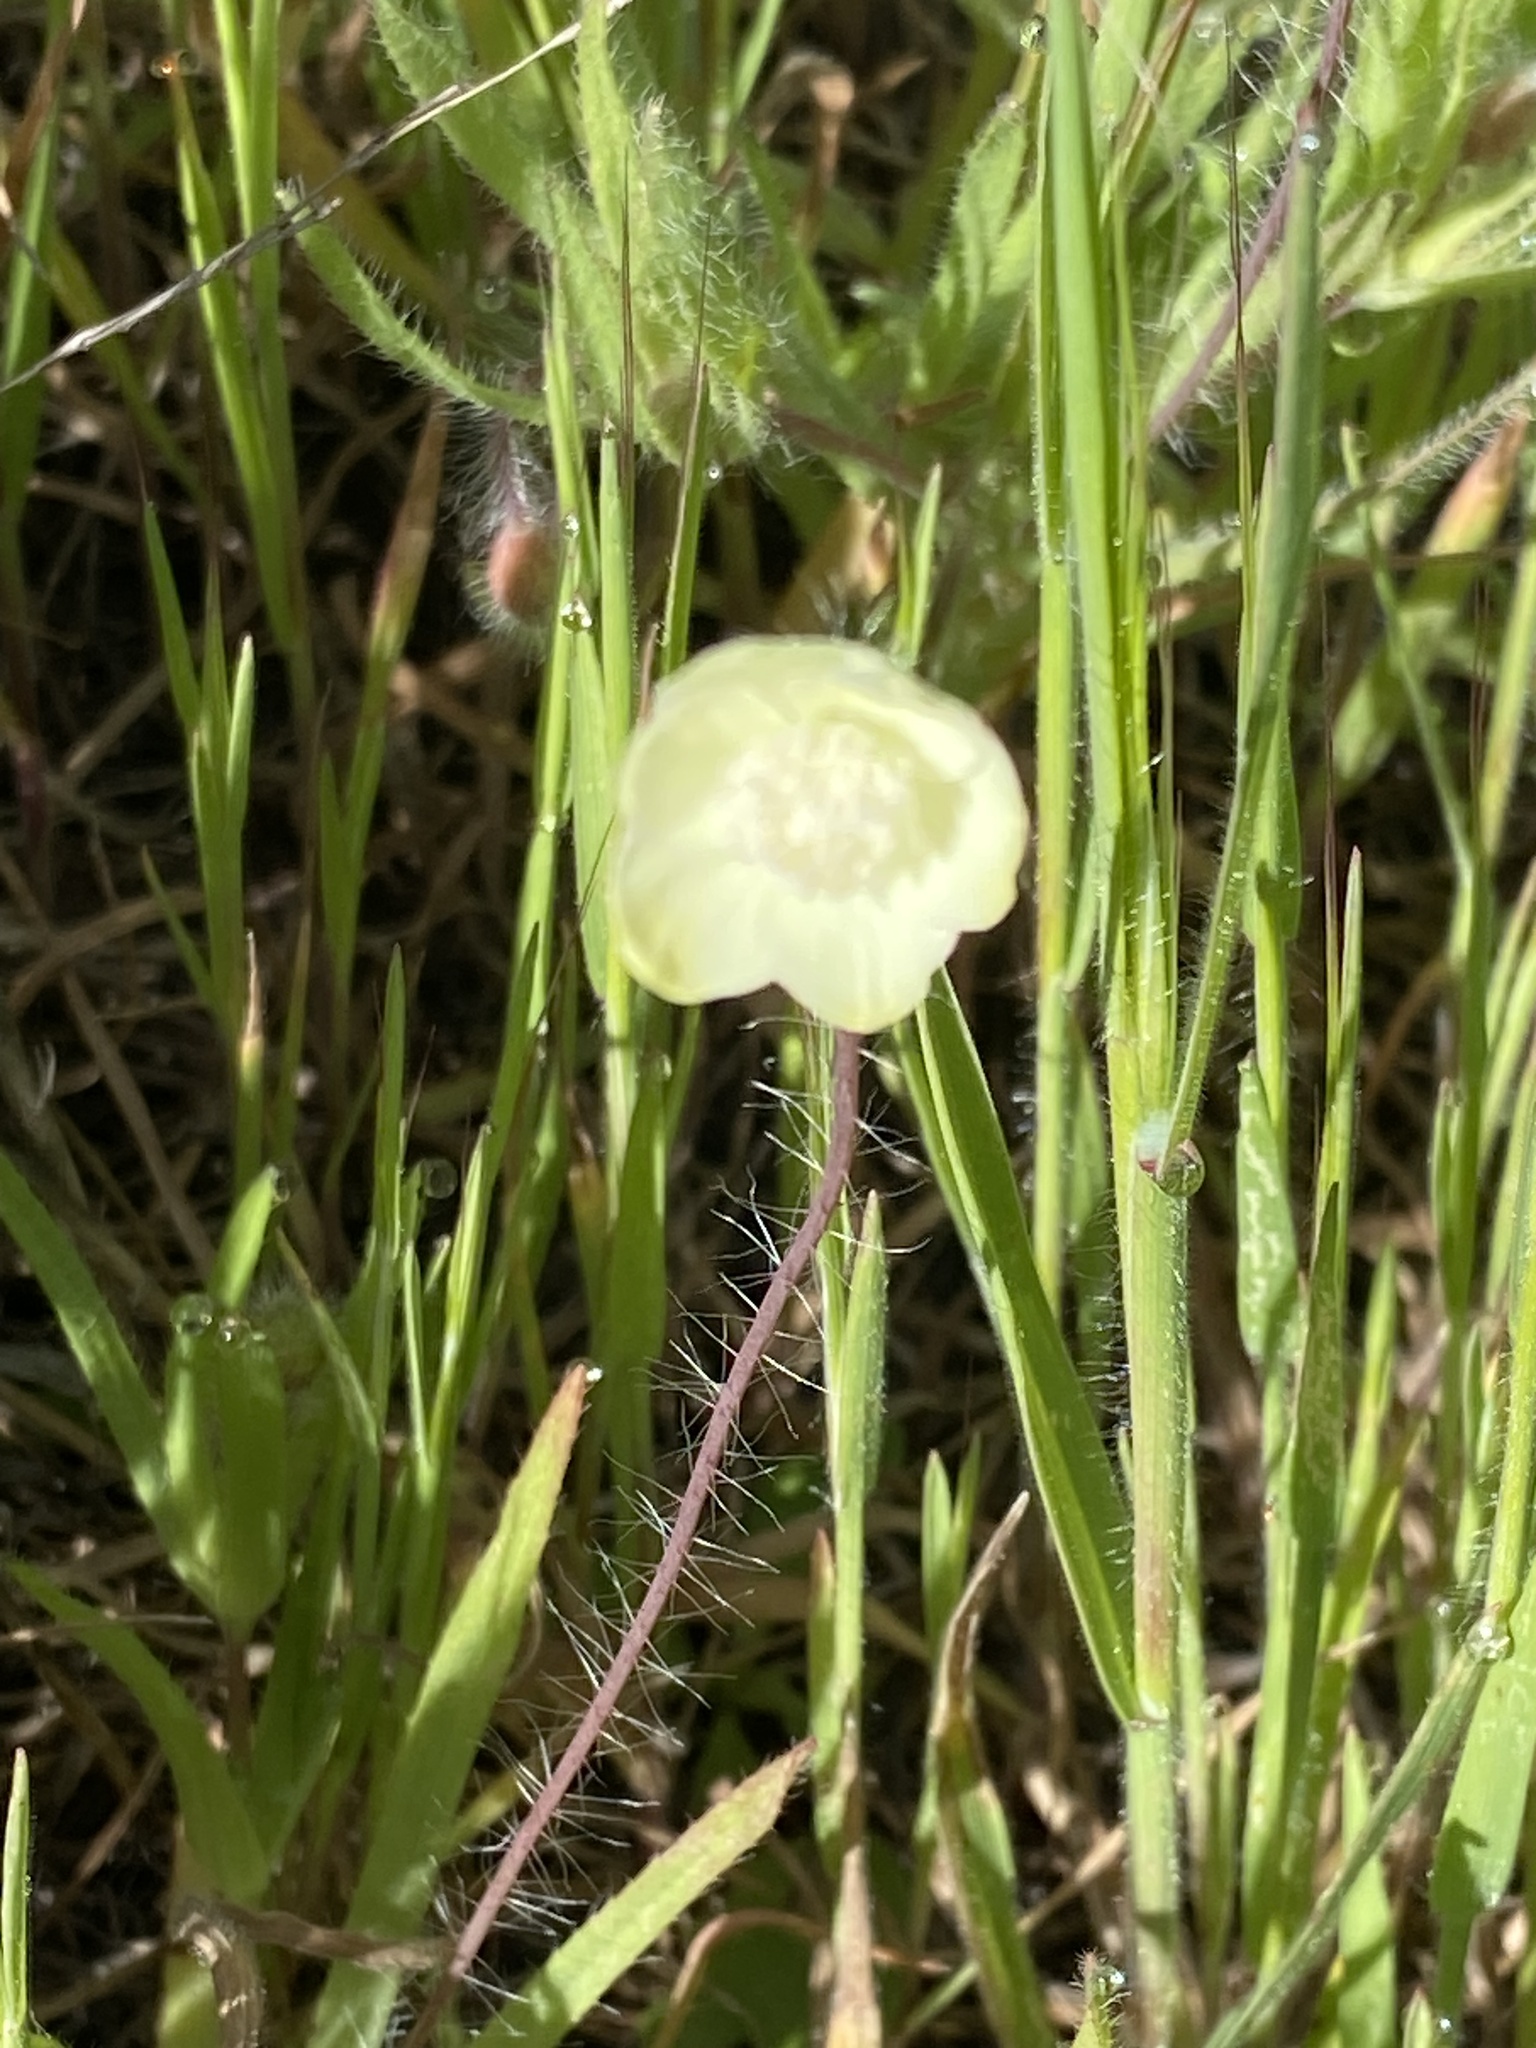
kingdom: Plantae
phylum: Tracheophyta
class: Magnoliopsida
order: Ranunculales
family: Papaveraceae
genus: Platystemon
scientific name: Platystemon californicus
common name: Cream-cups
